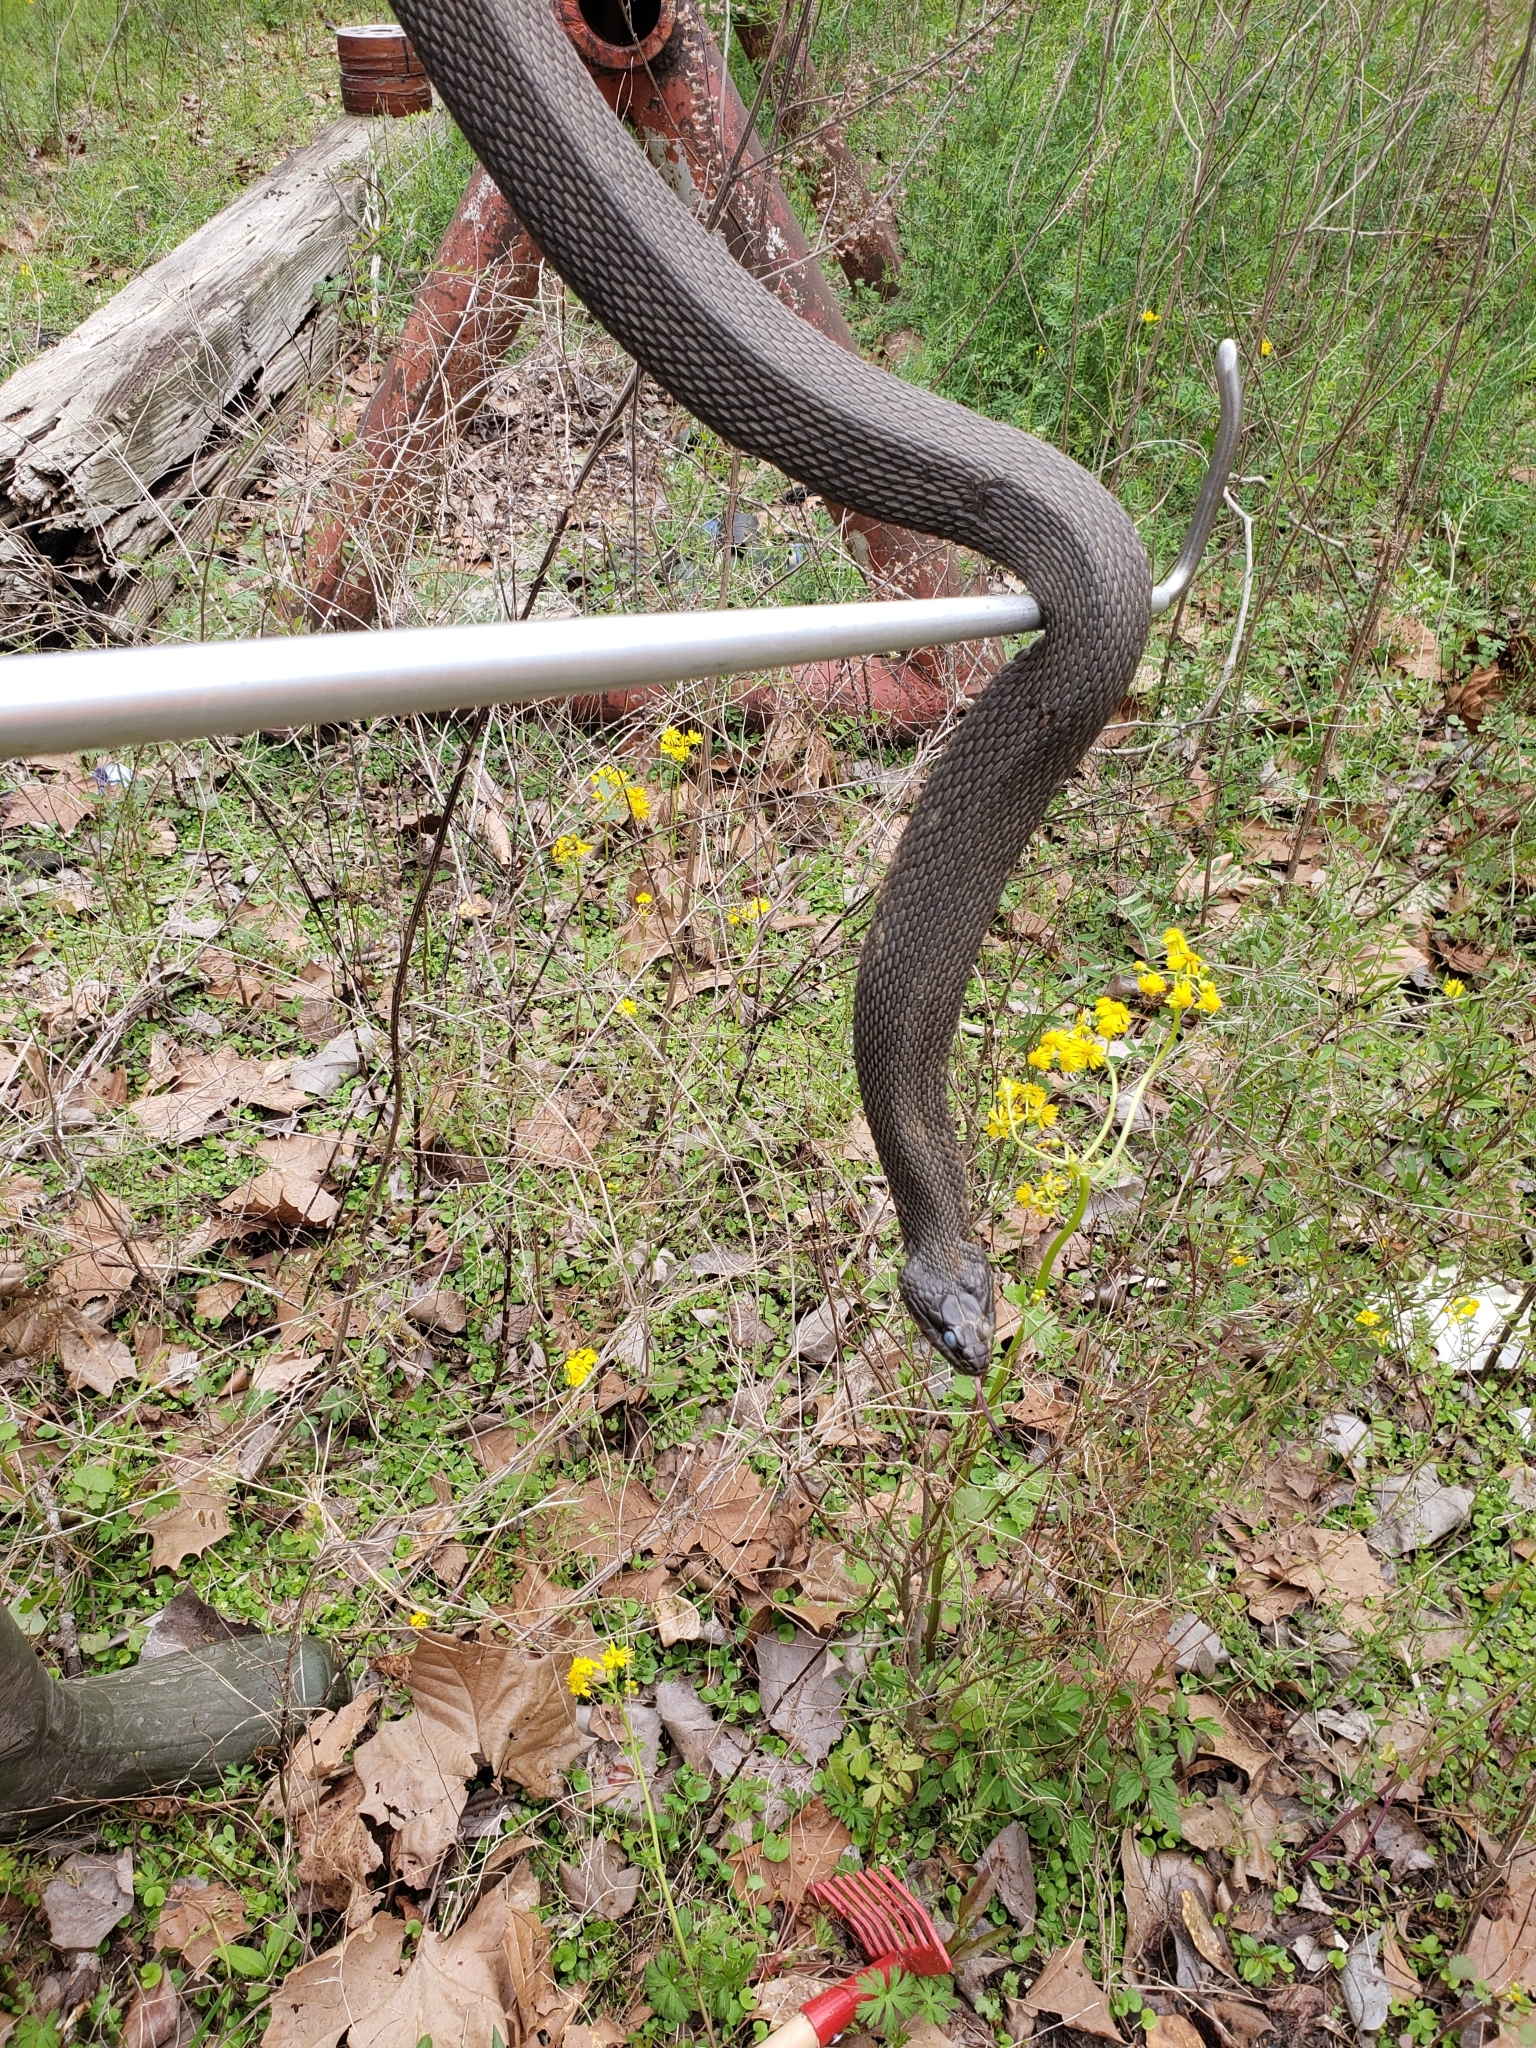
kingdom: Animalia
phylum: Chordata
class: Squamata
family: Colubridae
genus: Nerodia
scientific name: Nerodia erythrogaster
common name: Plainbelly water snake
